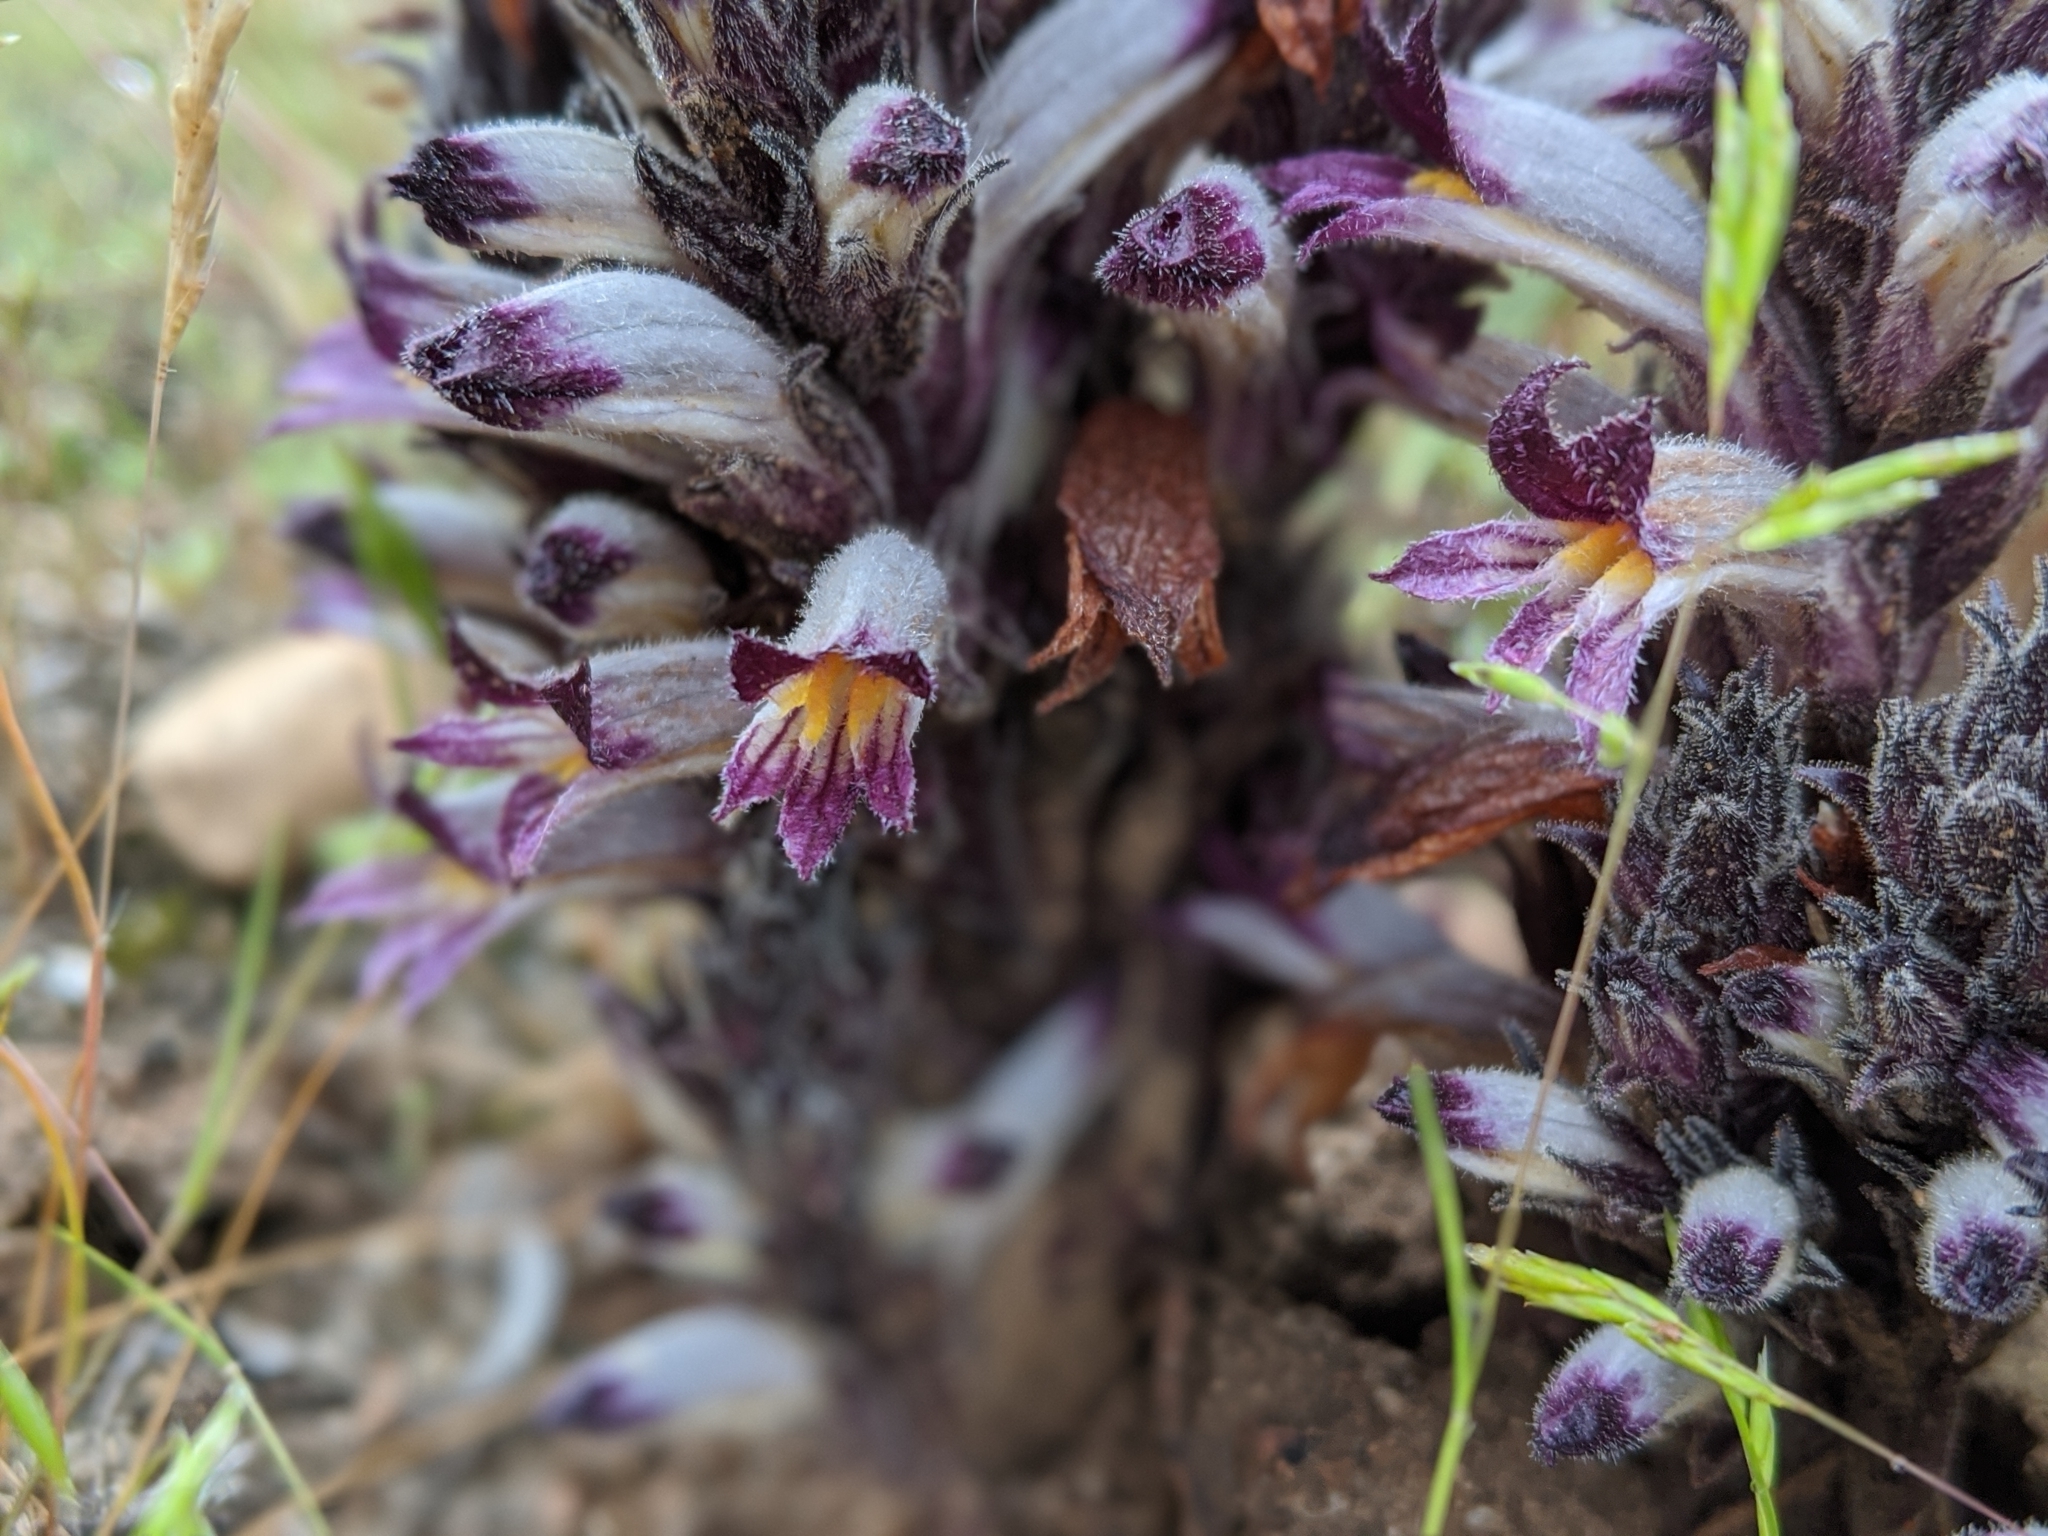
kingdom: Plantae
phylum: Tracheophyta
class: Magnoliopsida
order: Lamiales
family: Orobanchaceae
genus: Aphyllon
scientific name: Aphyllon cooperi
